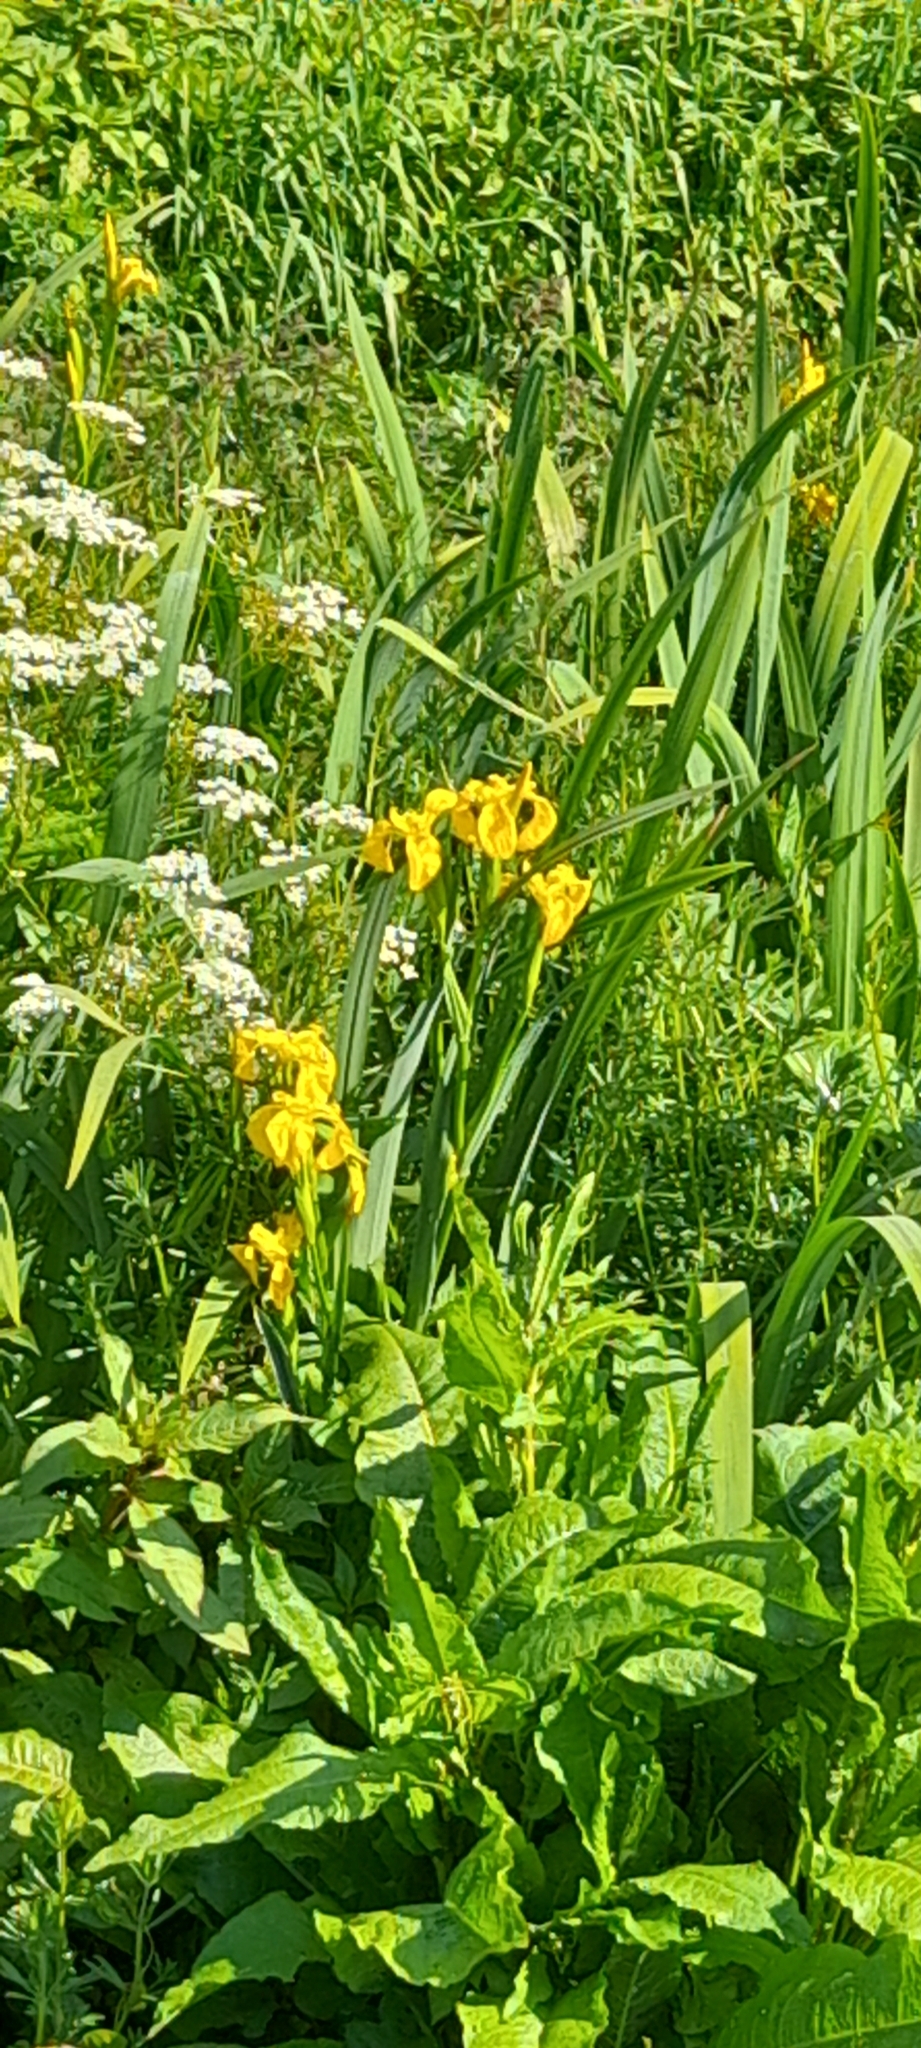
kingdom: Plantae
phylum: Tracheophyta
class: Liliopsida
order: Asparagales
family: Iridaceae
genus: Iris
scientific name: Iris pseudacorus
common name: Yellow flag
